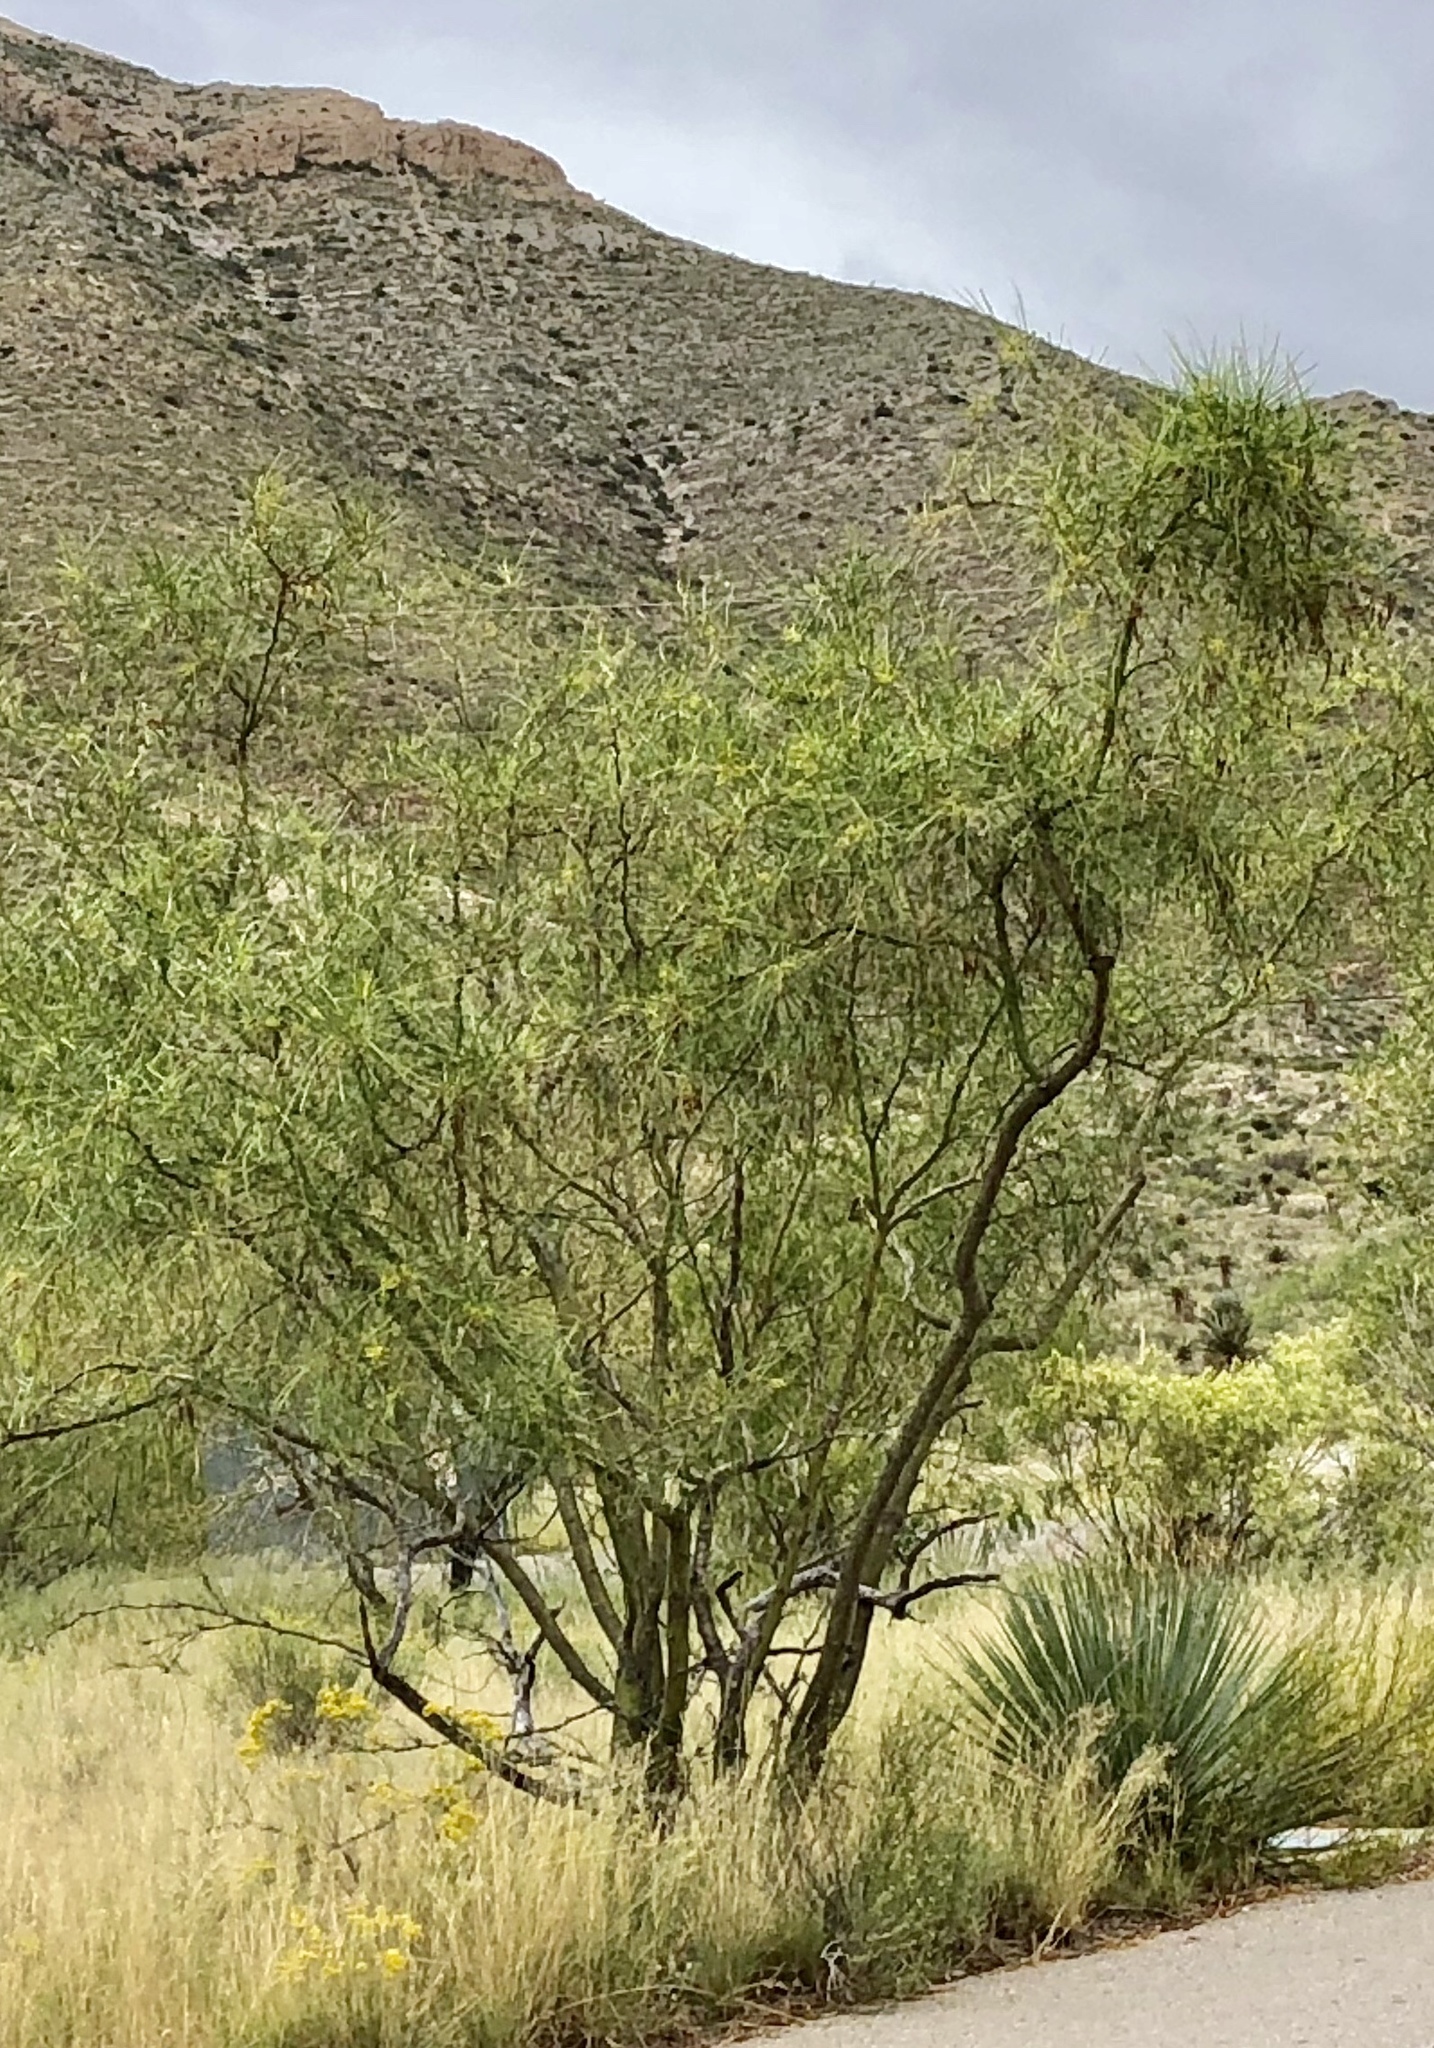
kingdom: Plantae
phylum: Tracheophyta
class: Magnoliopsida
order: Lamiales
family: Bignoniaceae
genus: Chilopsis
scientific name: Chilopsis linearis
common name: Desert-willow
